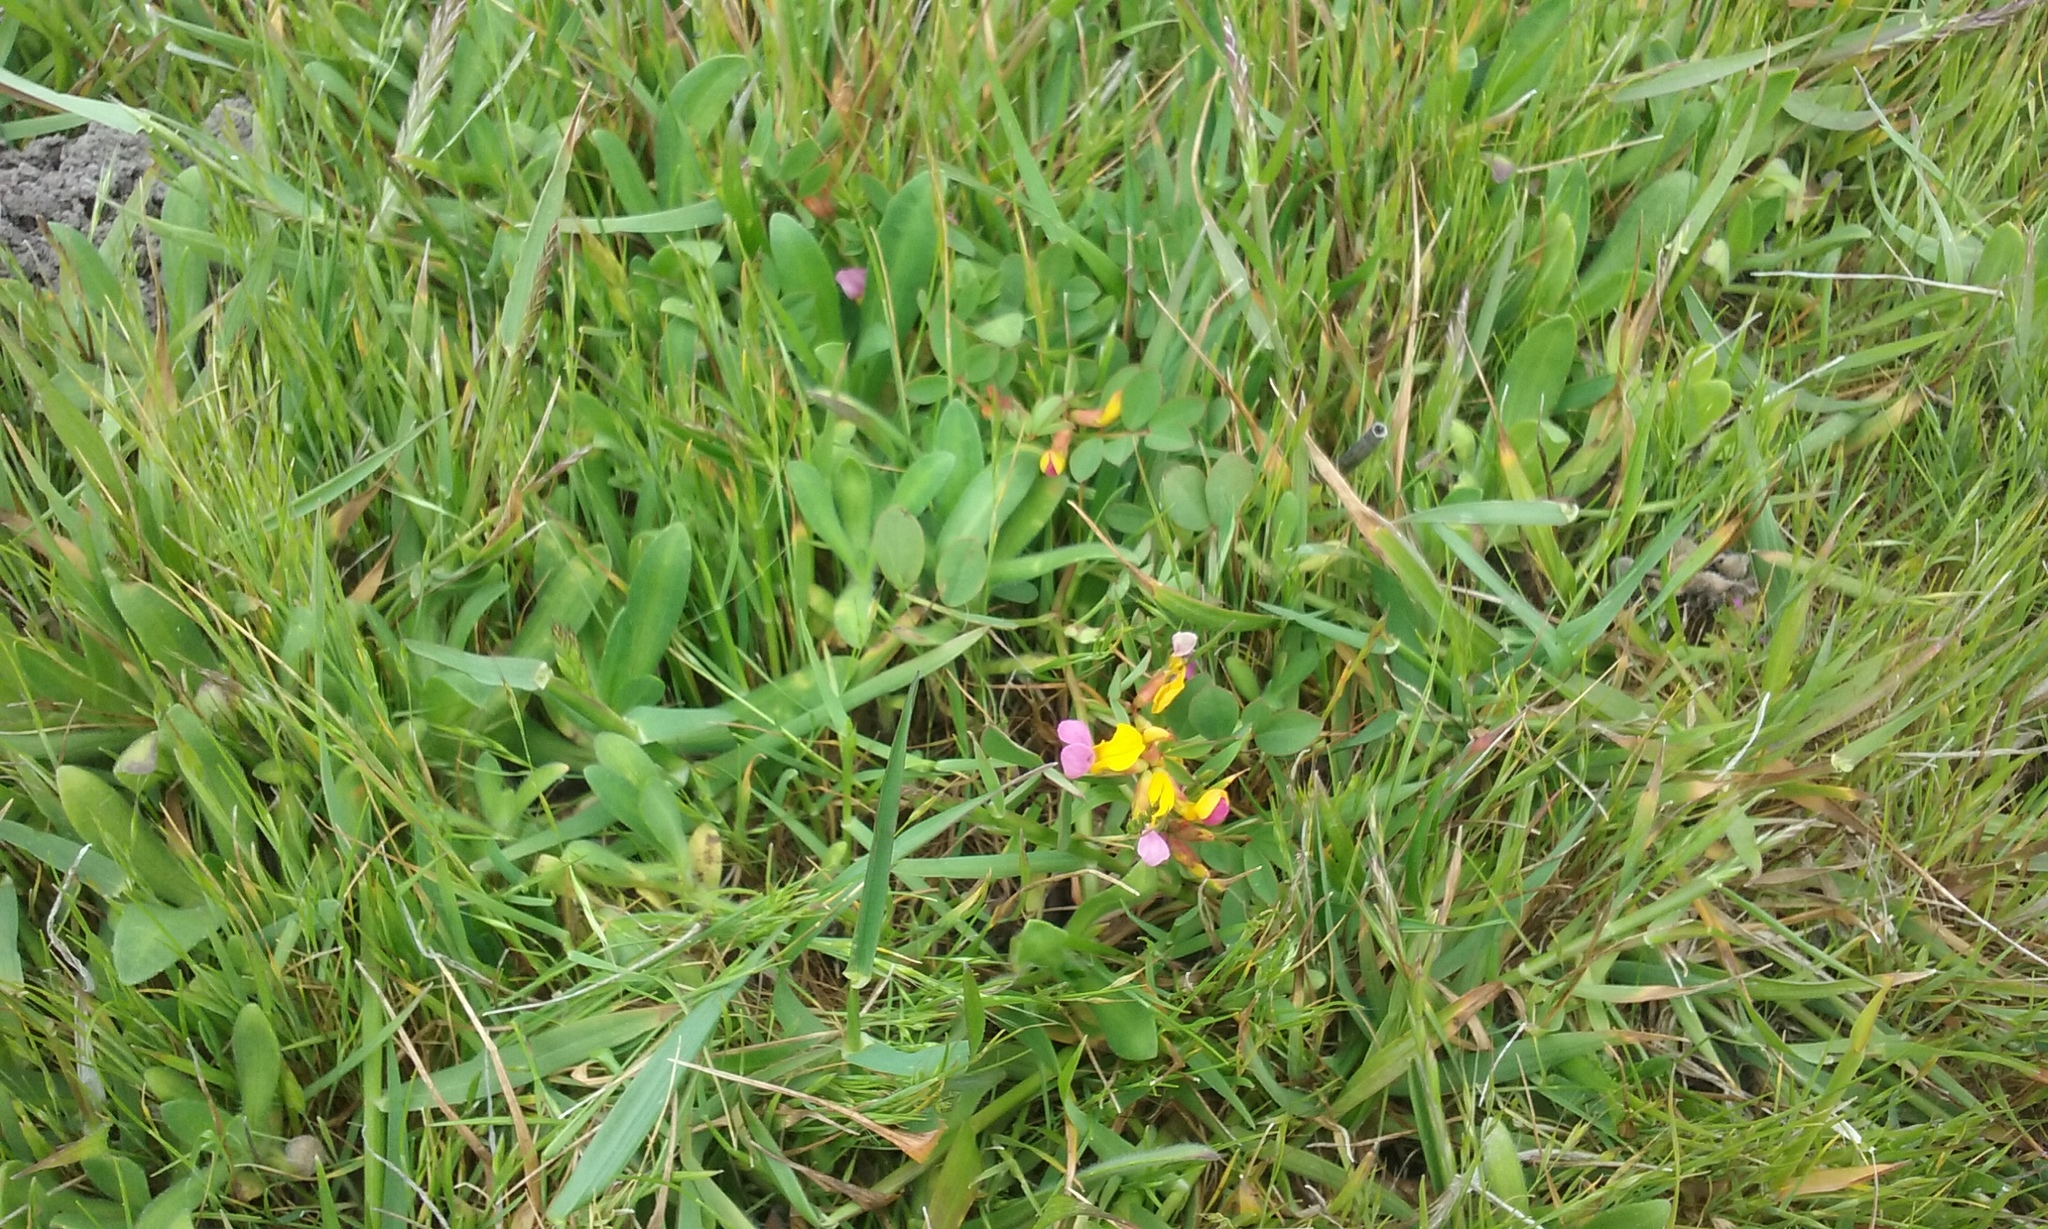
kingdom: Plantae
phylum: Tracheophyta
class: Magnoliopsida
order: Fabales
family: Fabaceae
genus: Hosackia
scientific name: Hosackia gracilis
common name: Seaside bird's-foot lotus
